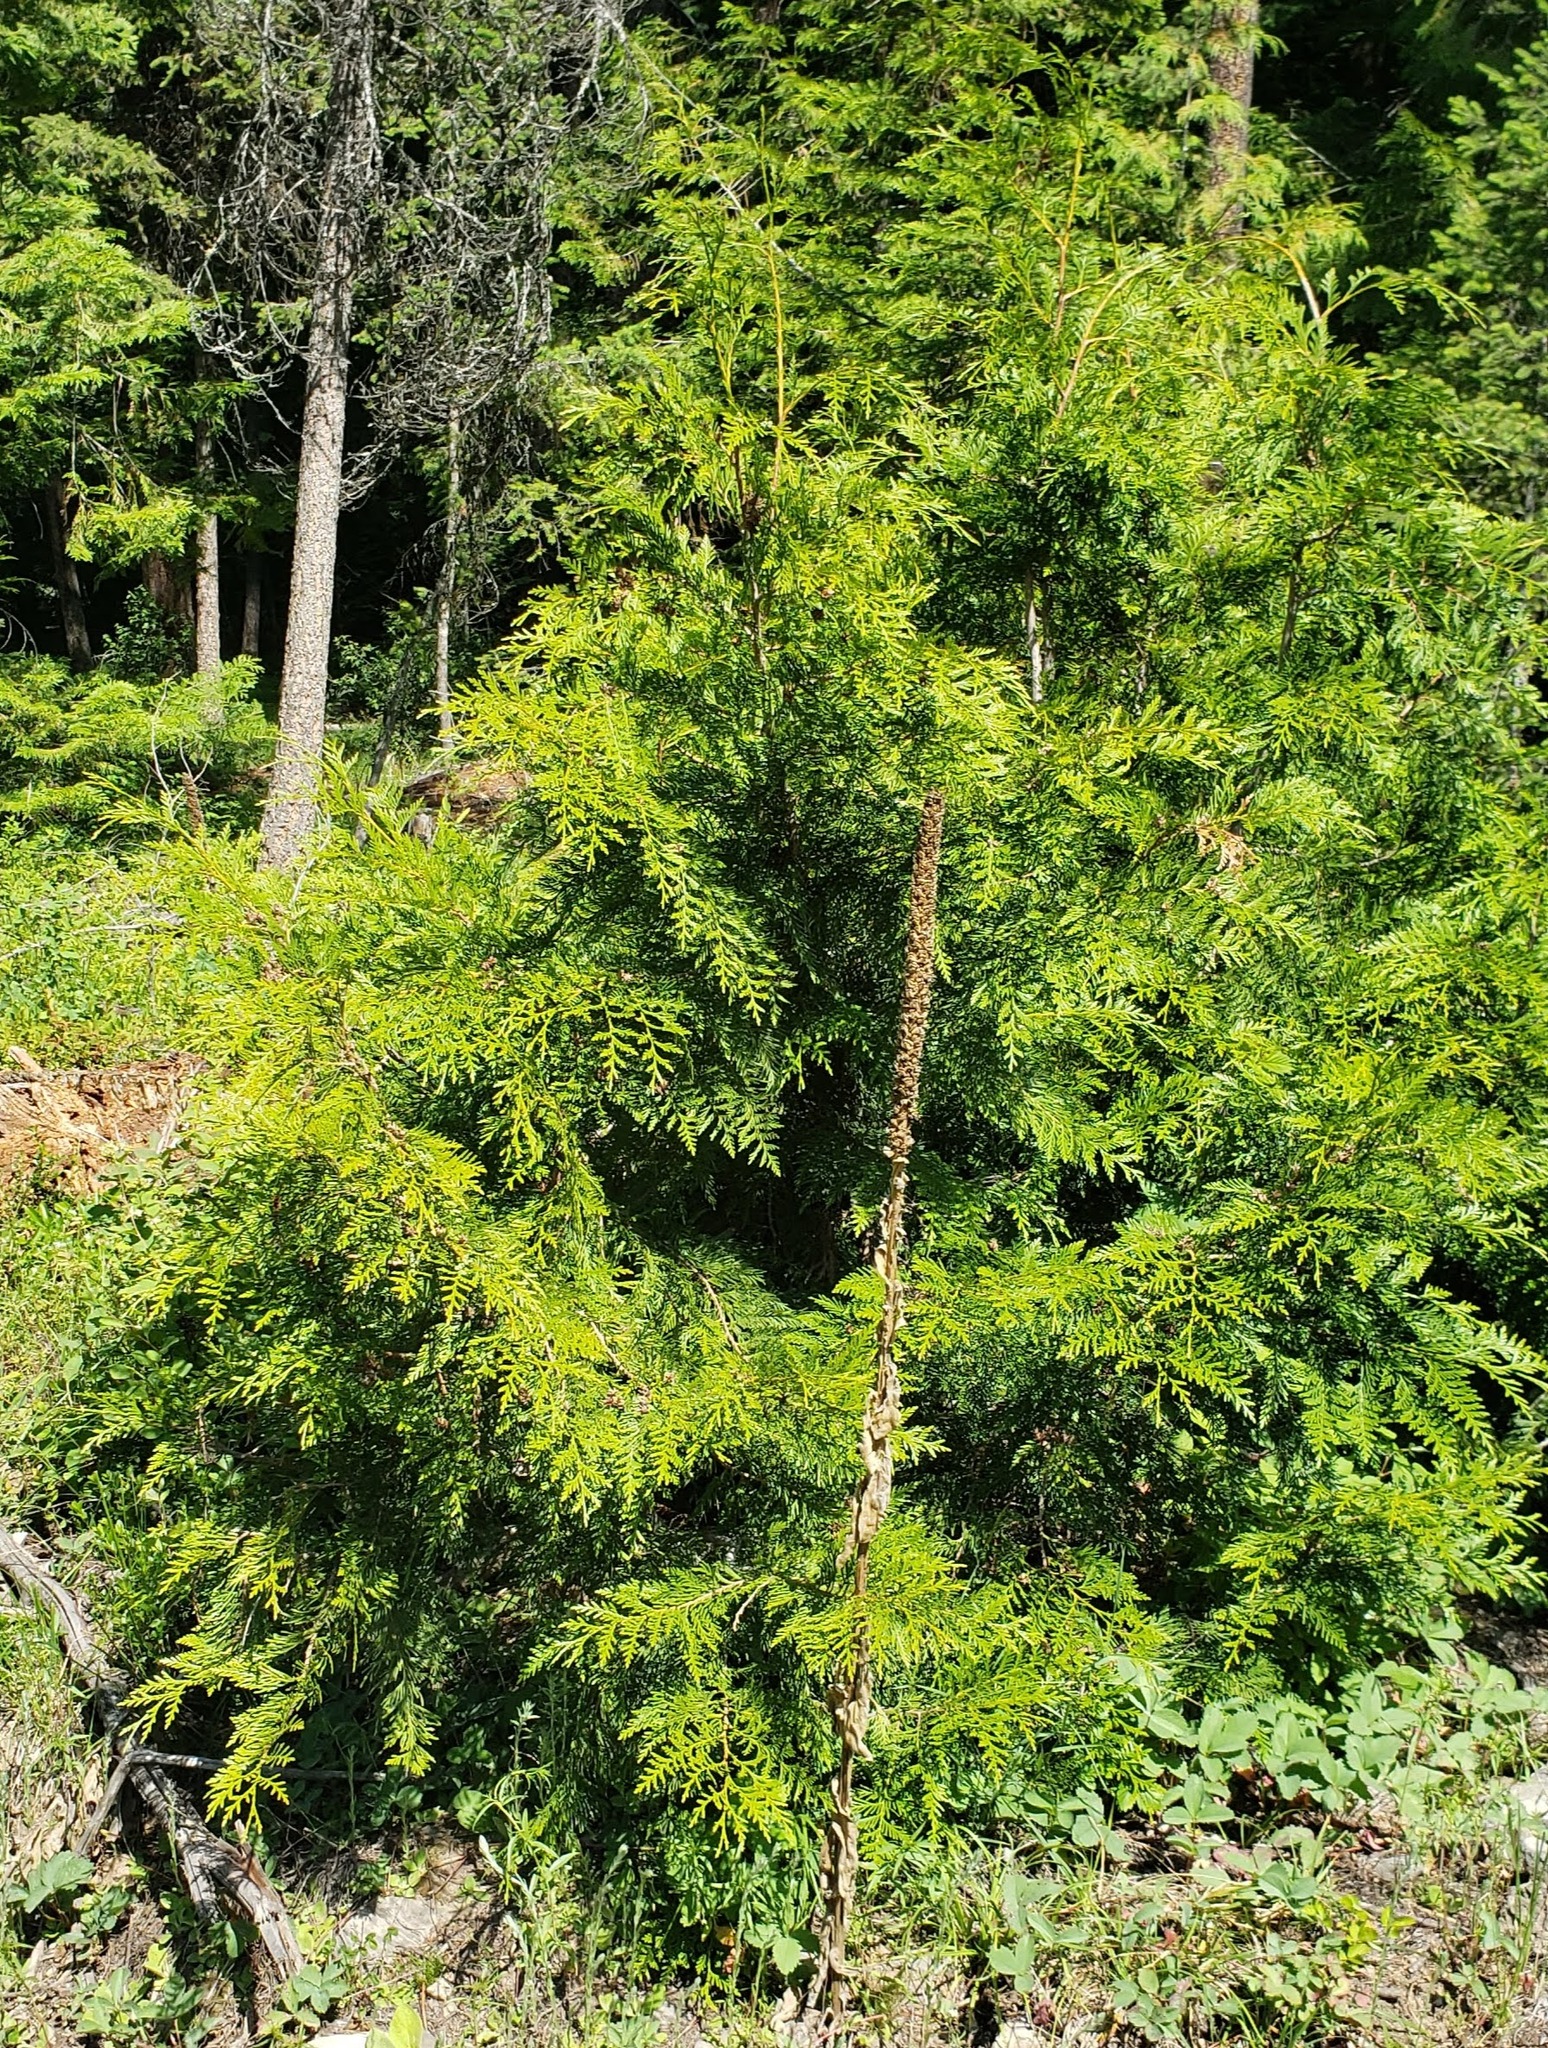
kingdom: Plantae
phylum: Tracheophyta
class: Pinopsida
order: Pinales
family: Cupressaceae
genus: Thuja
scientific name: Thuja plicata
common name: Western red-cedar
